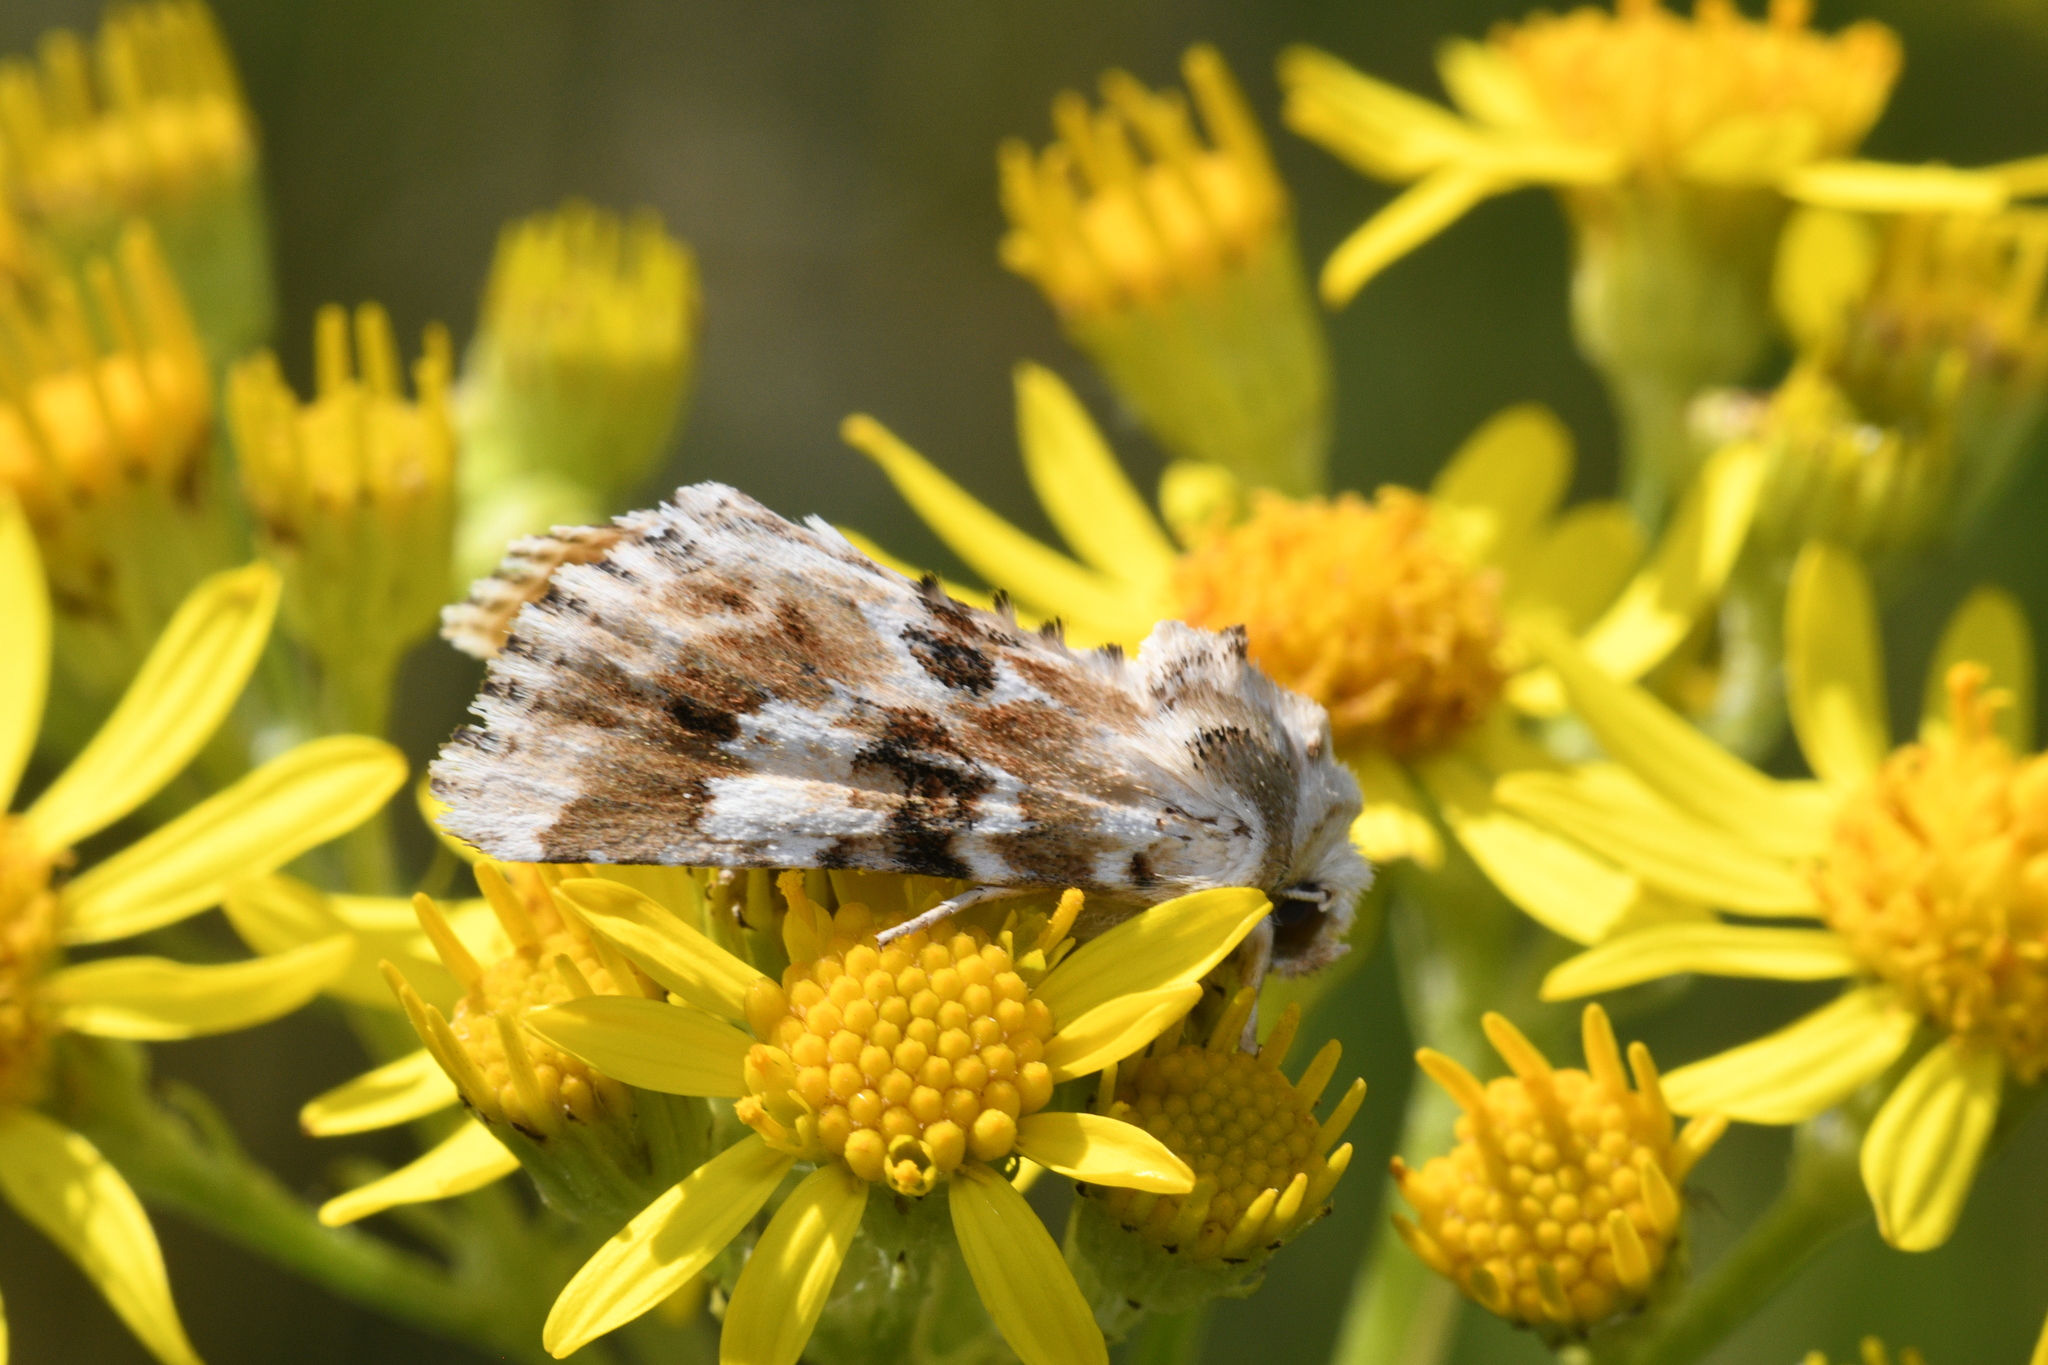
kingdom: Animalia
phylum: Arthropoda
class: Insecta
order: Lepidoptera
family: Noctuidae
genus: Eremobia
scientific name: Eremobia ochroleuca
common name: Dusky sallow
